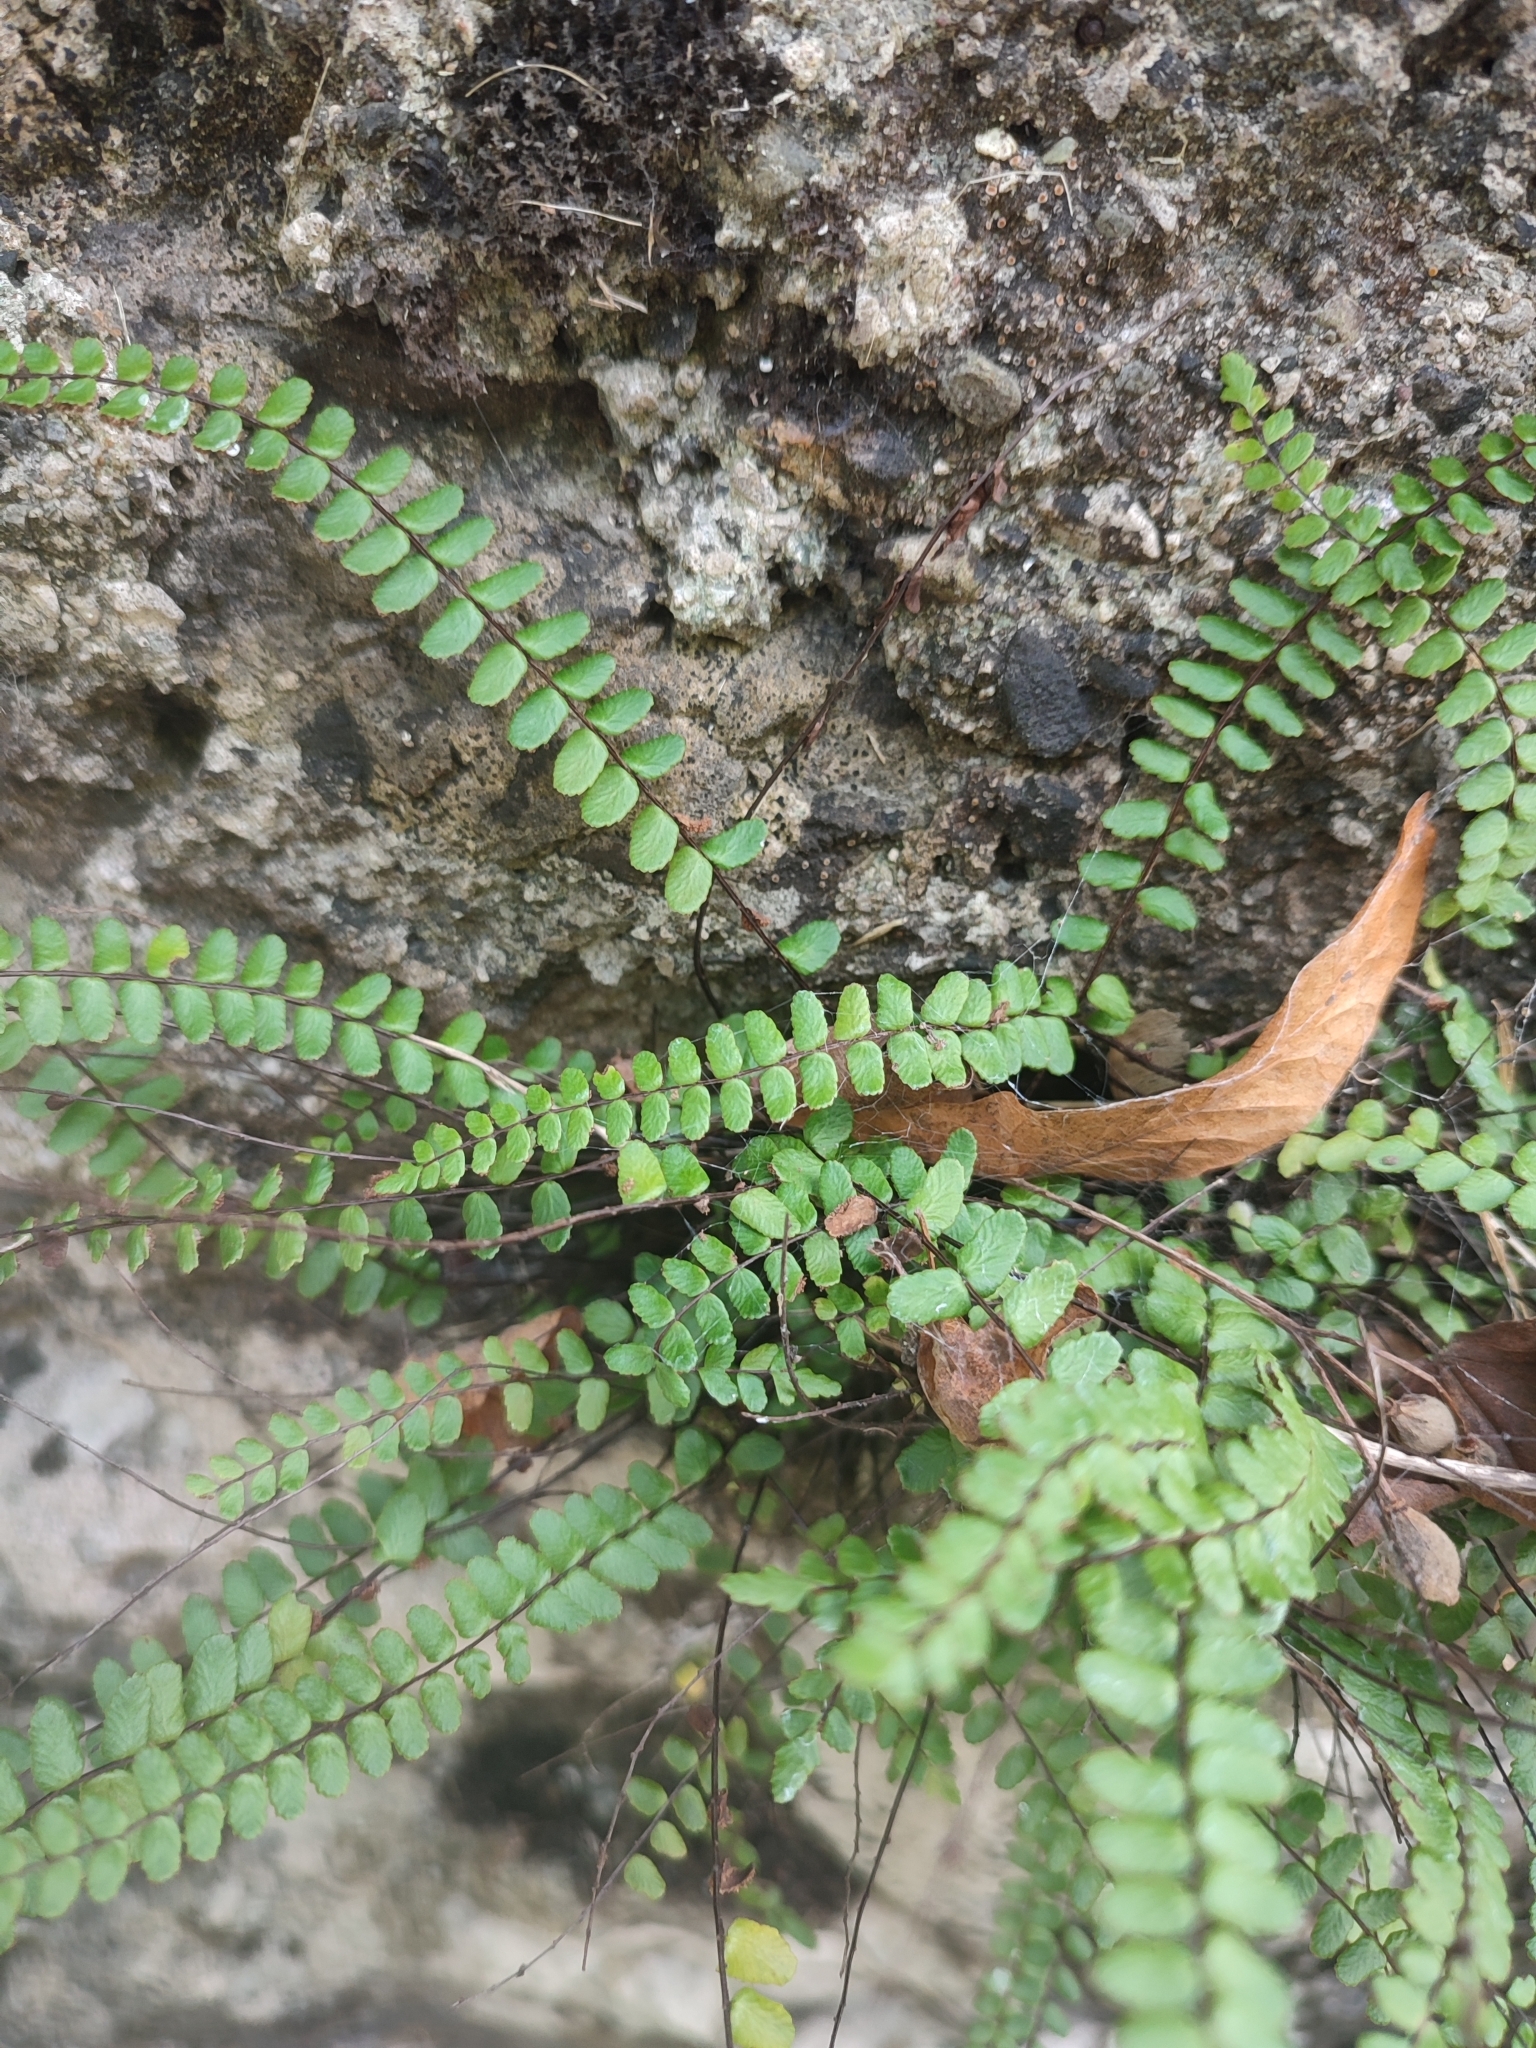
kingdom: Plantae
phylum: Tracheophyta
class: Polypodiopsida
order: Polypodiales
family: Aspleniaceae
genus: Asplenium
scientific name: Asplenium trichomanes
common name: Maidenhair spleenwort
